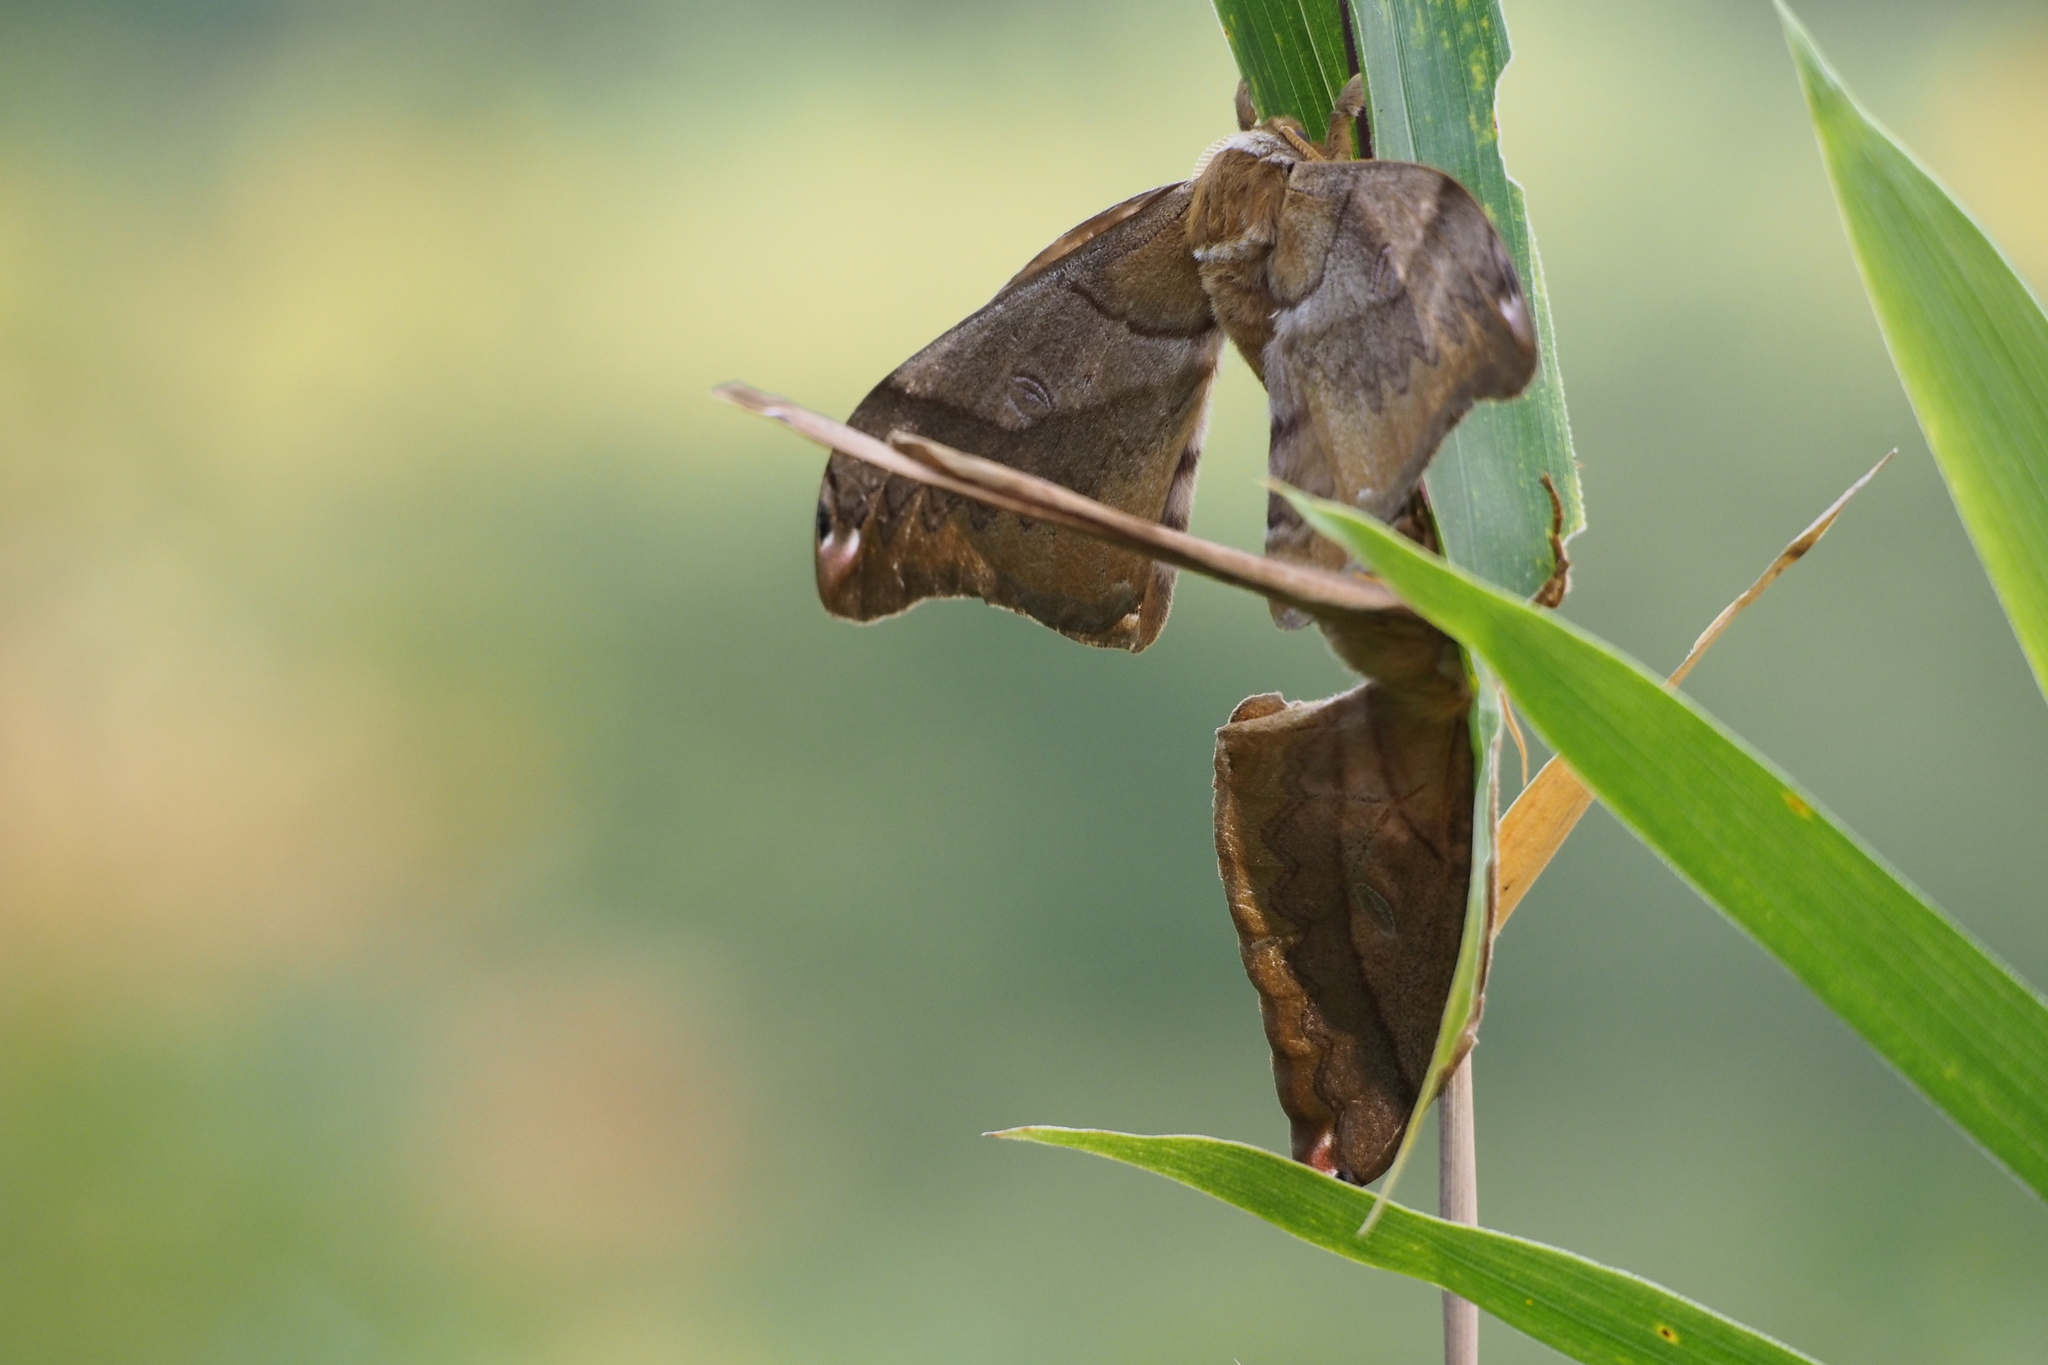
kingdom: Animalia
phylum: Arthropoda
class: Insecta
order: Lepidoptera
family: Saturniidae
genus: Saturnia
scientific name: Saturnia japonica
